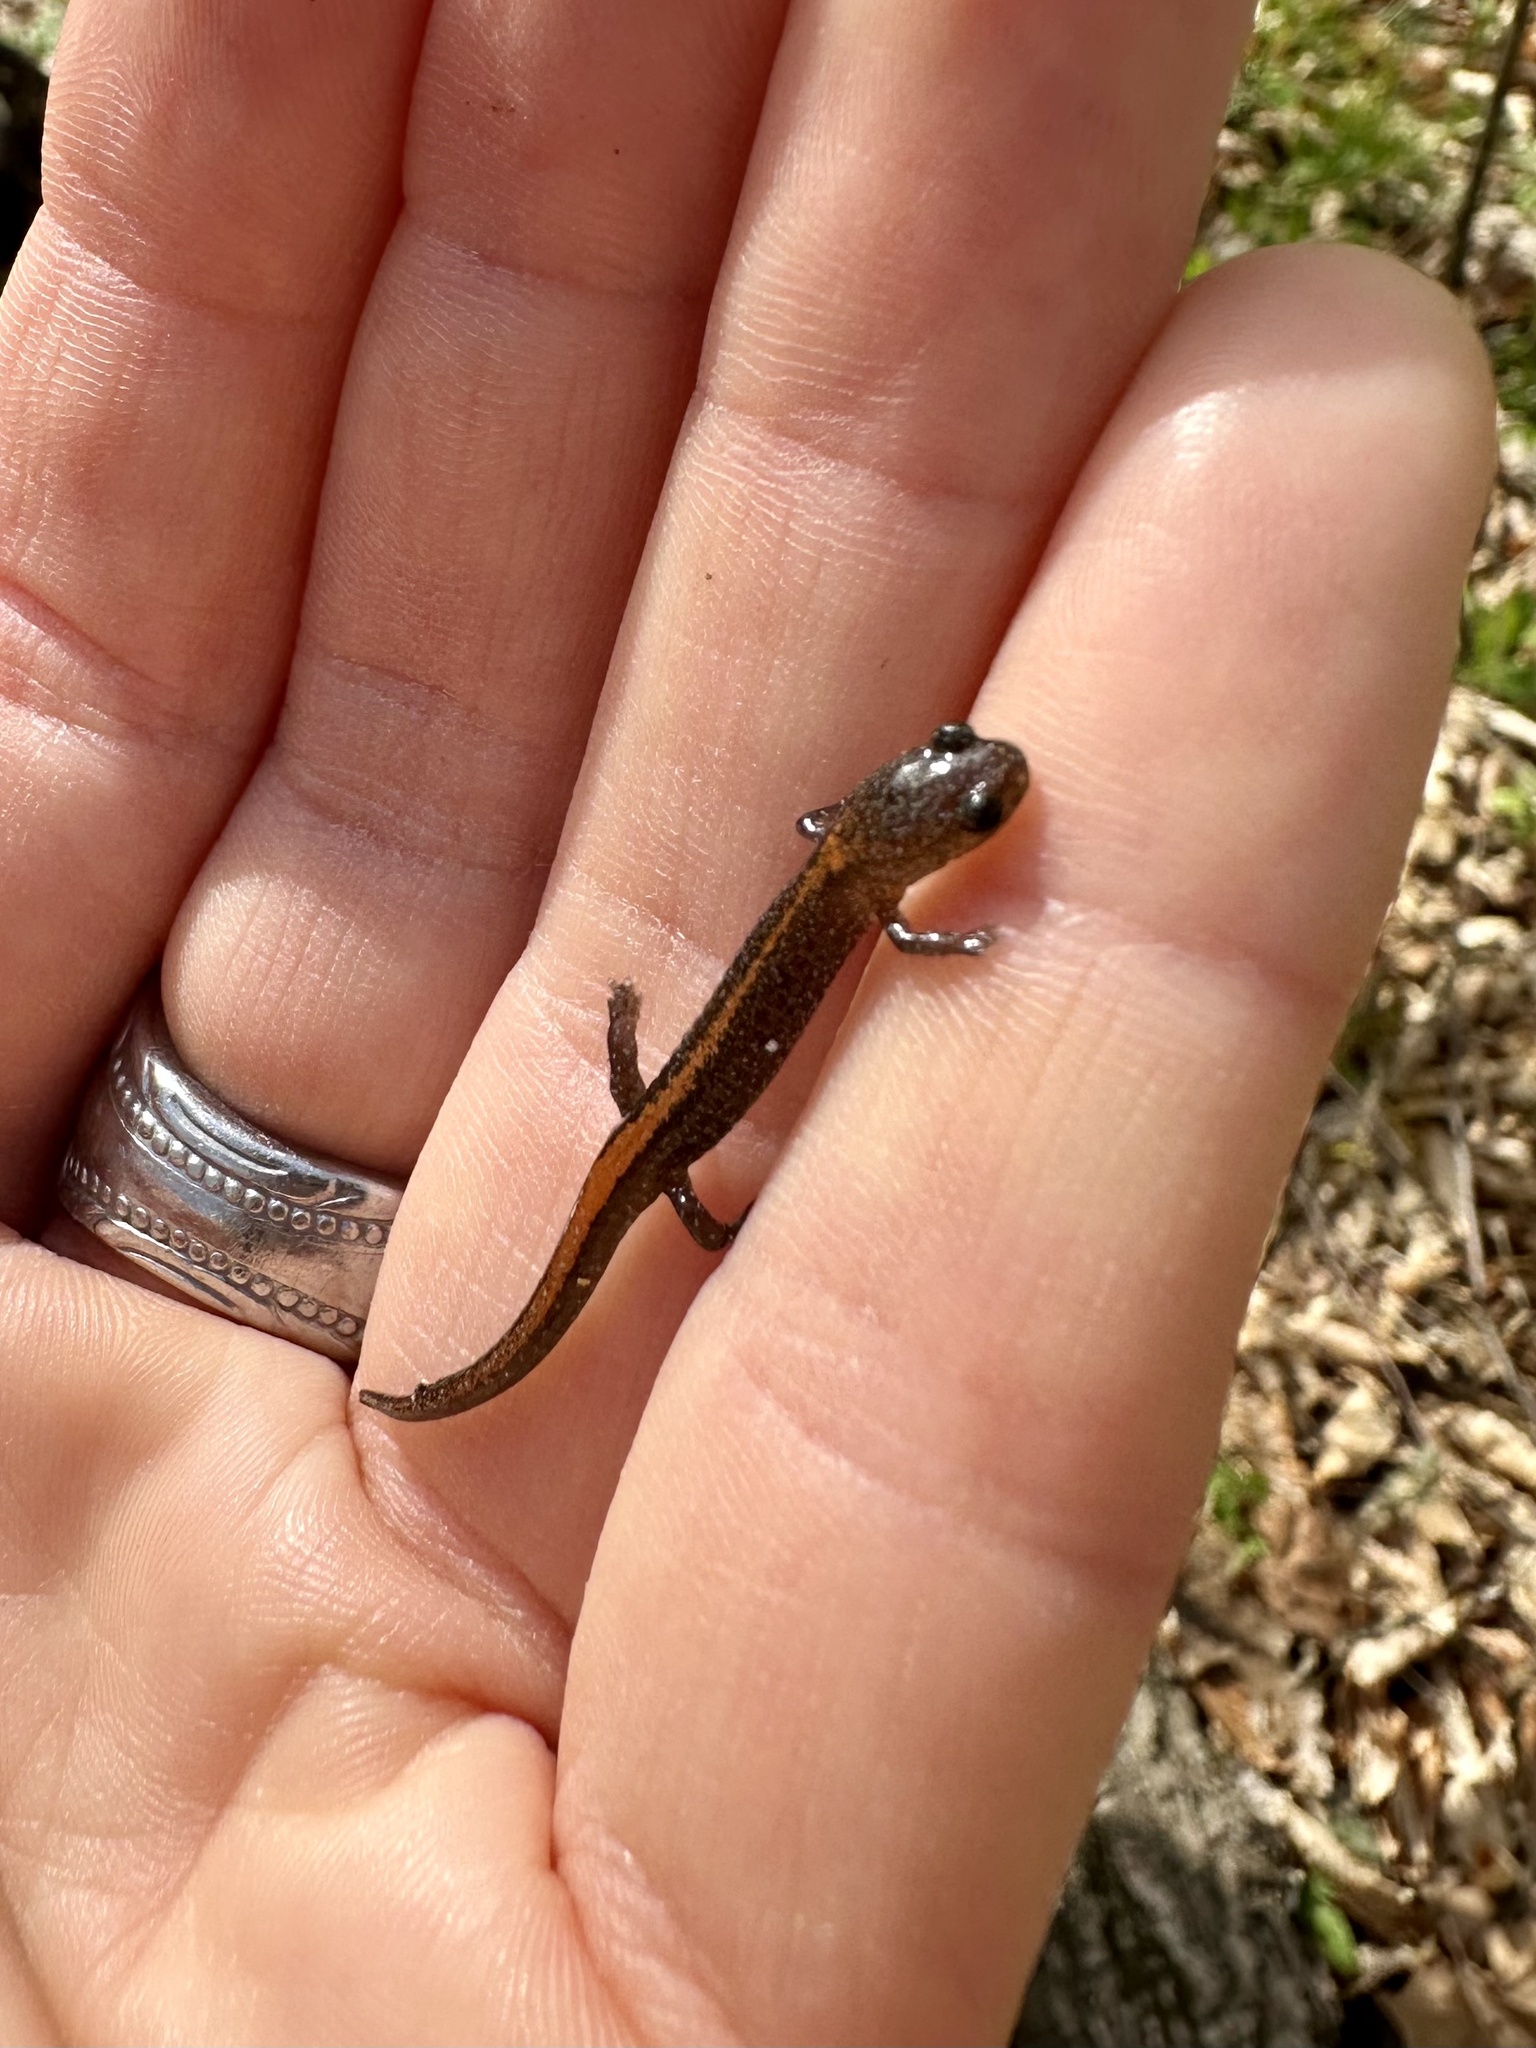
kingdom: Animalia
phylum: Chordata
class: Amphibia
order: Caudata
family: Plethodontidae
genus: Plethodon
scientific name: Plethodon angusticlavius
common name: Ozark zigzag salamander
